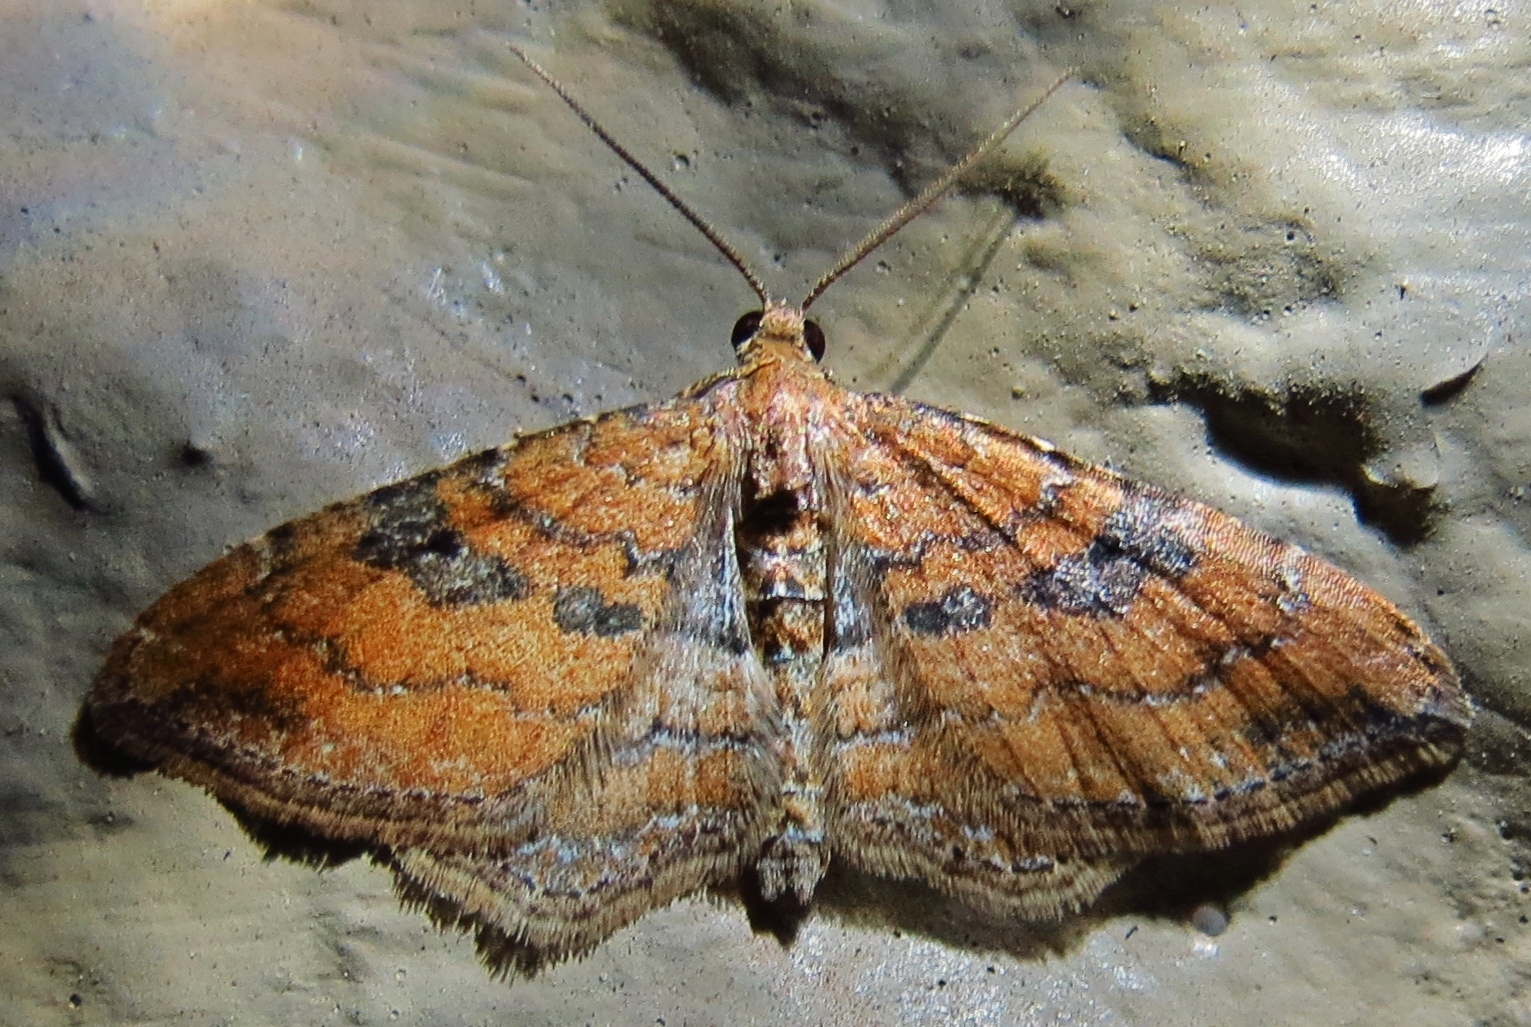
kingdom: Animalia
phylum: Arthropoda
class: Insecta
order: Lepidoptera
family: Geometridae
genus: Orthonama
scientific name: Orthonama obstipata
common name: The gem
